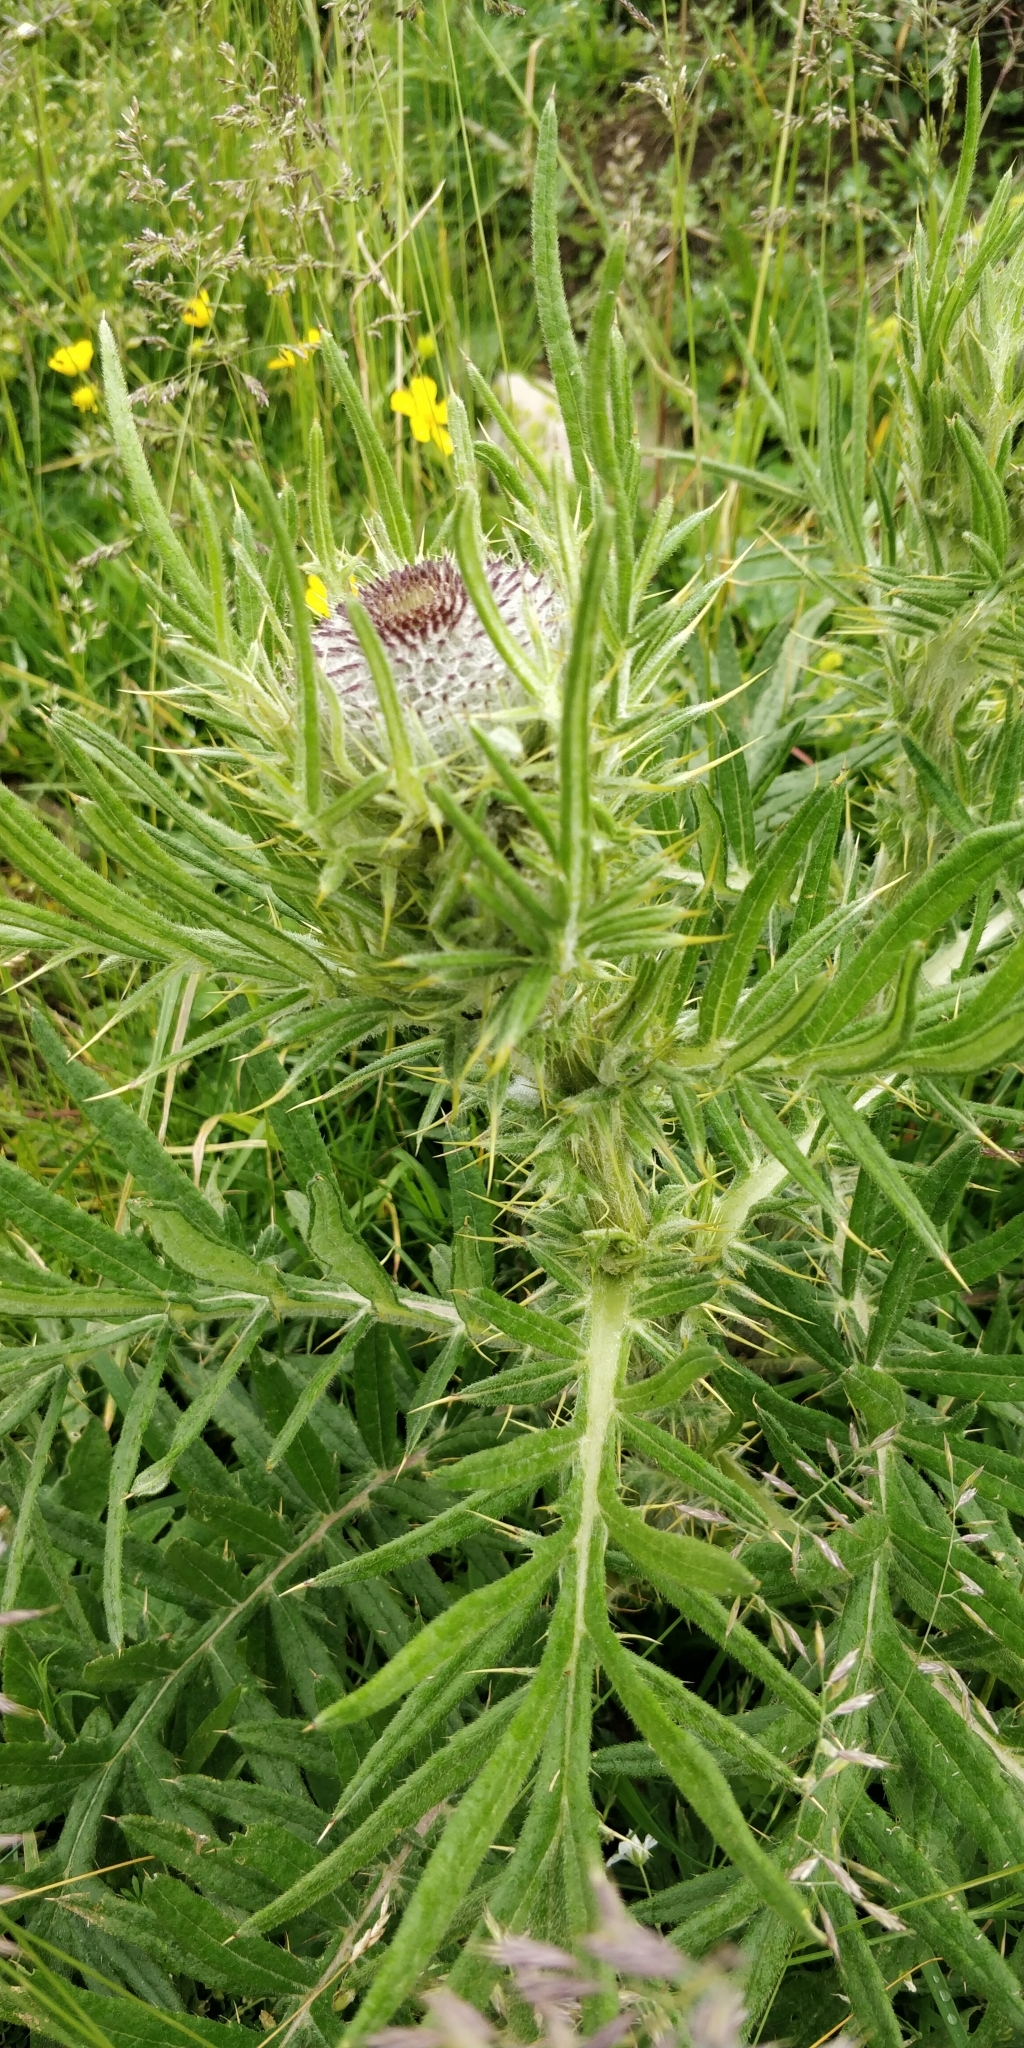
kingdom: Plantae
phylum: Tracheophyta
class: Magnoliopsida
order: Asterales
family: Asteraceae
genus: Lophiolepis
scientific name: Lophiolepis eriophora
